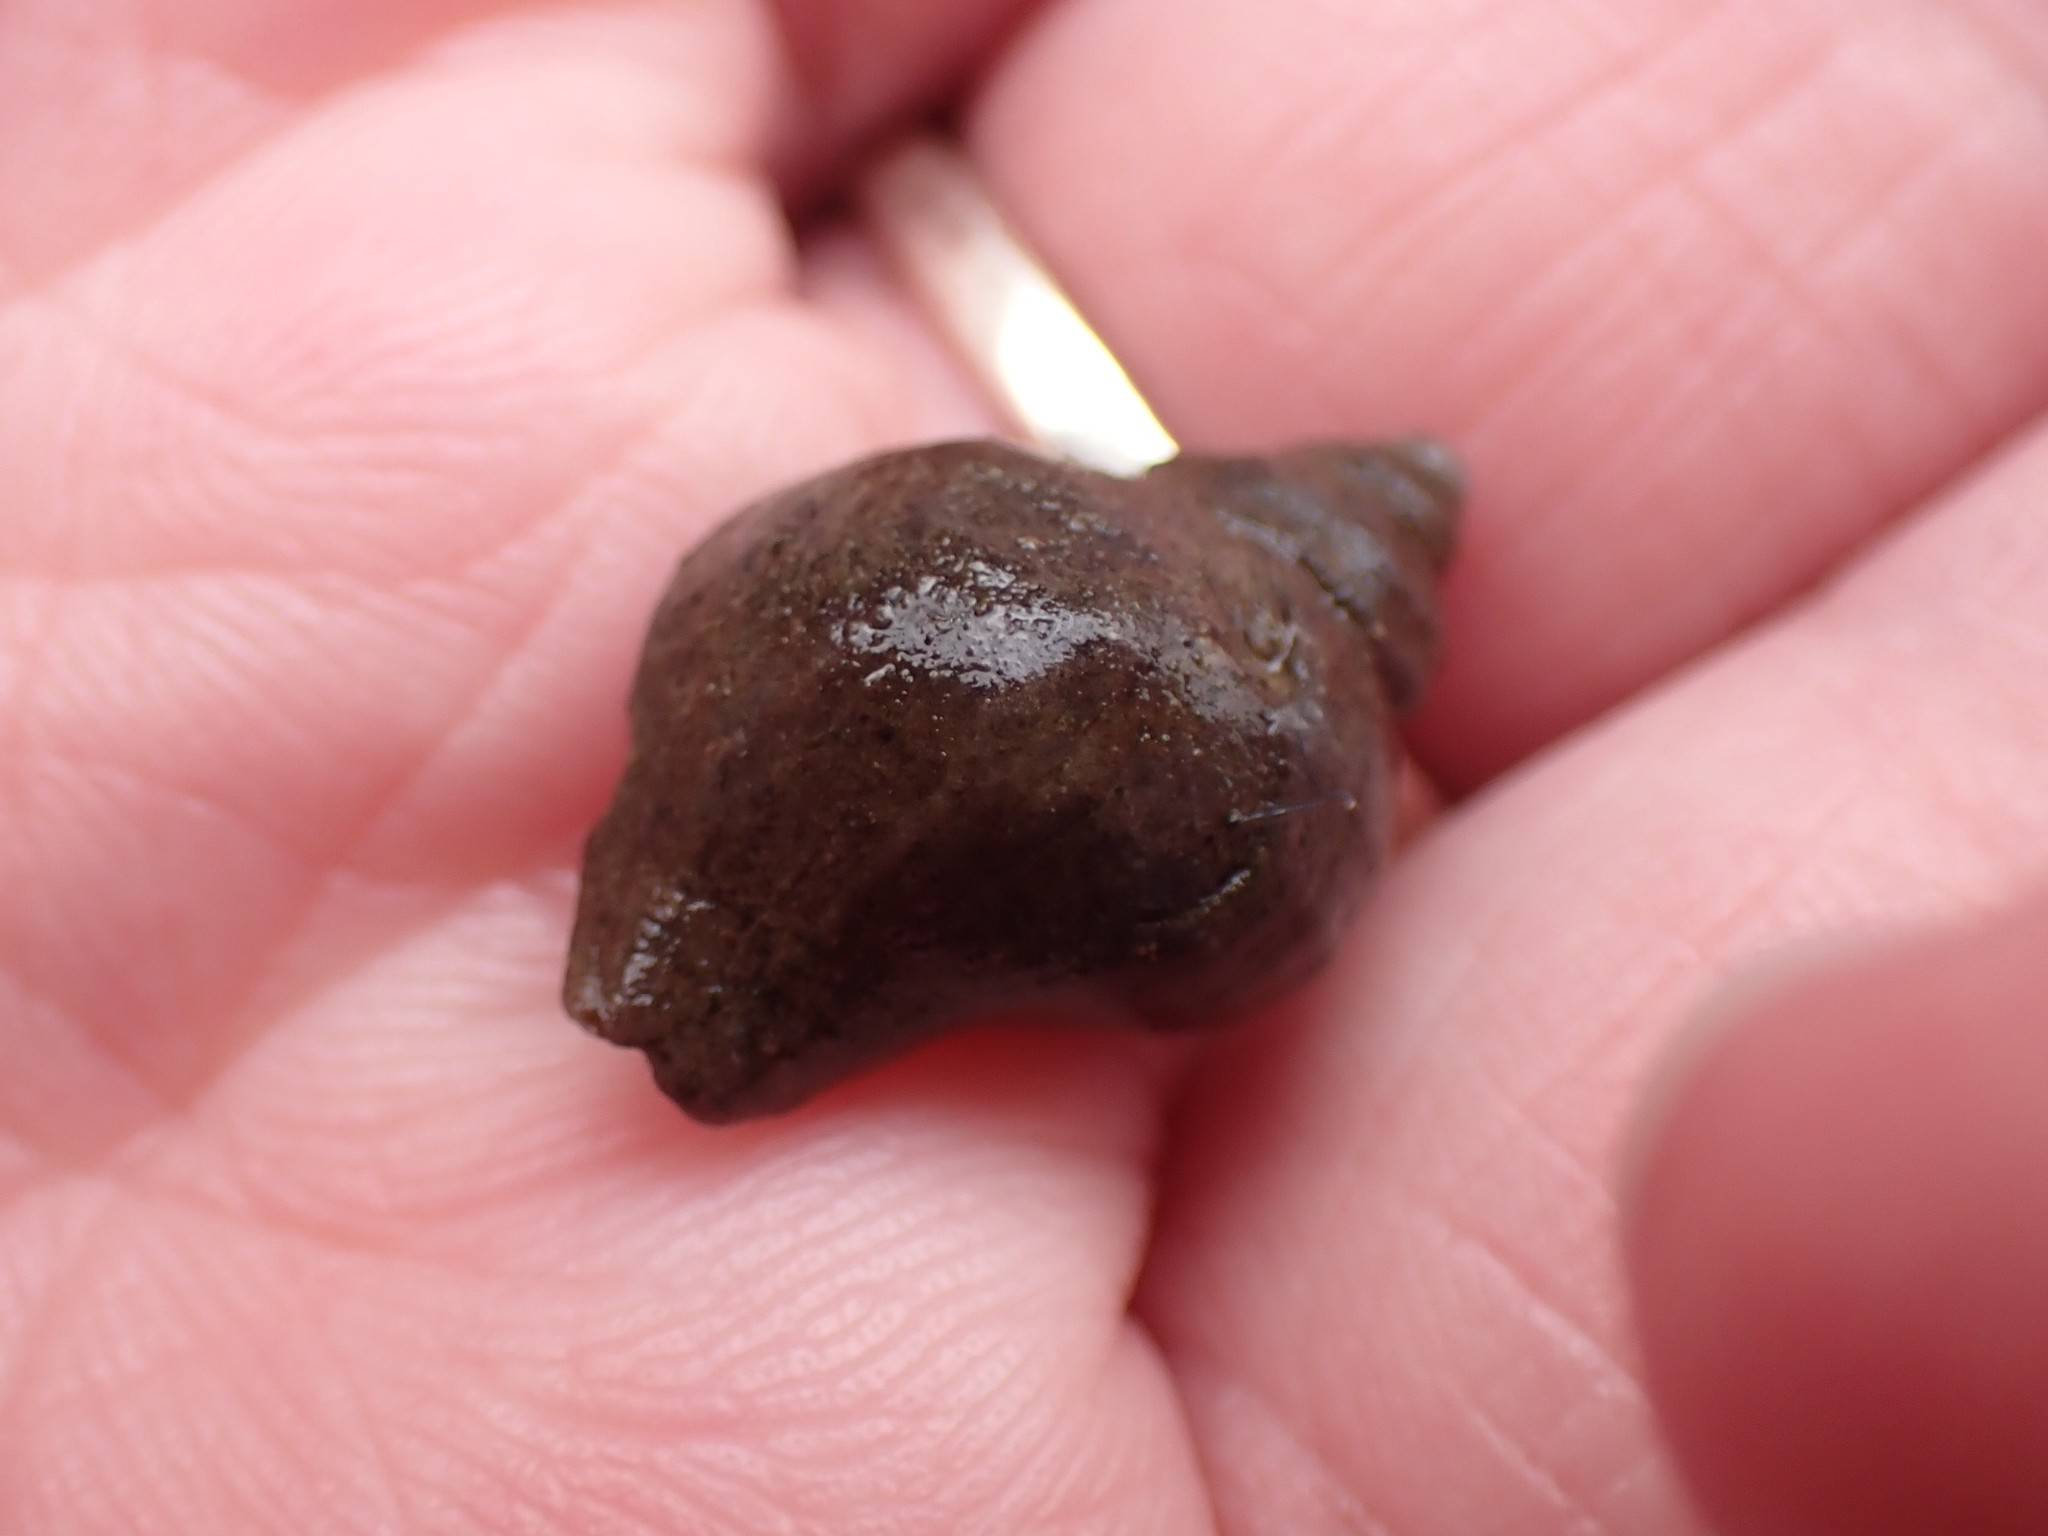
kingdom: Animalia
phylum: Mollusca
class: Gastropoda
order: Neogastropoda
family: Muricidae
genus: Nucella
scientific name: Nucella lamellosa
